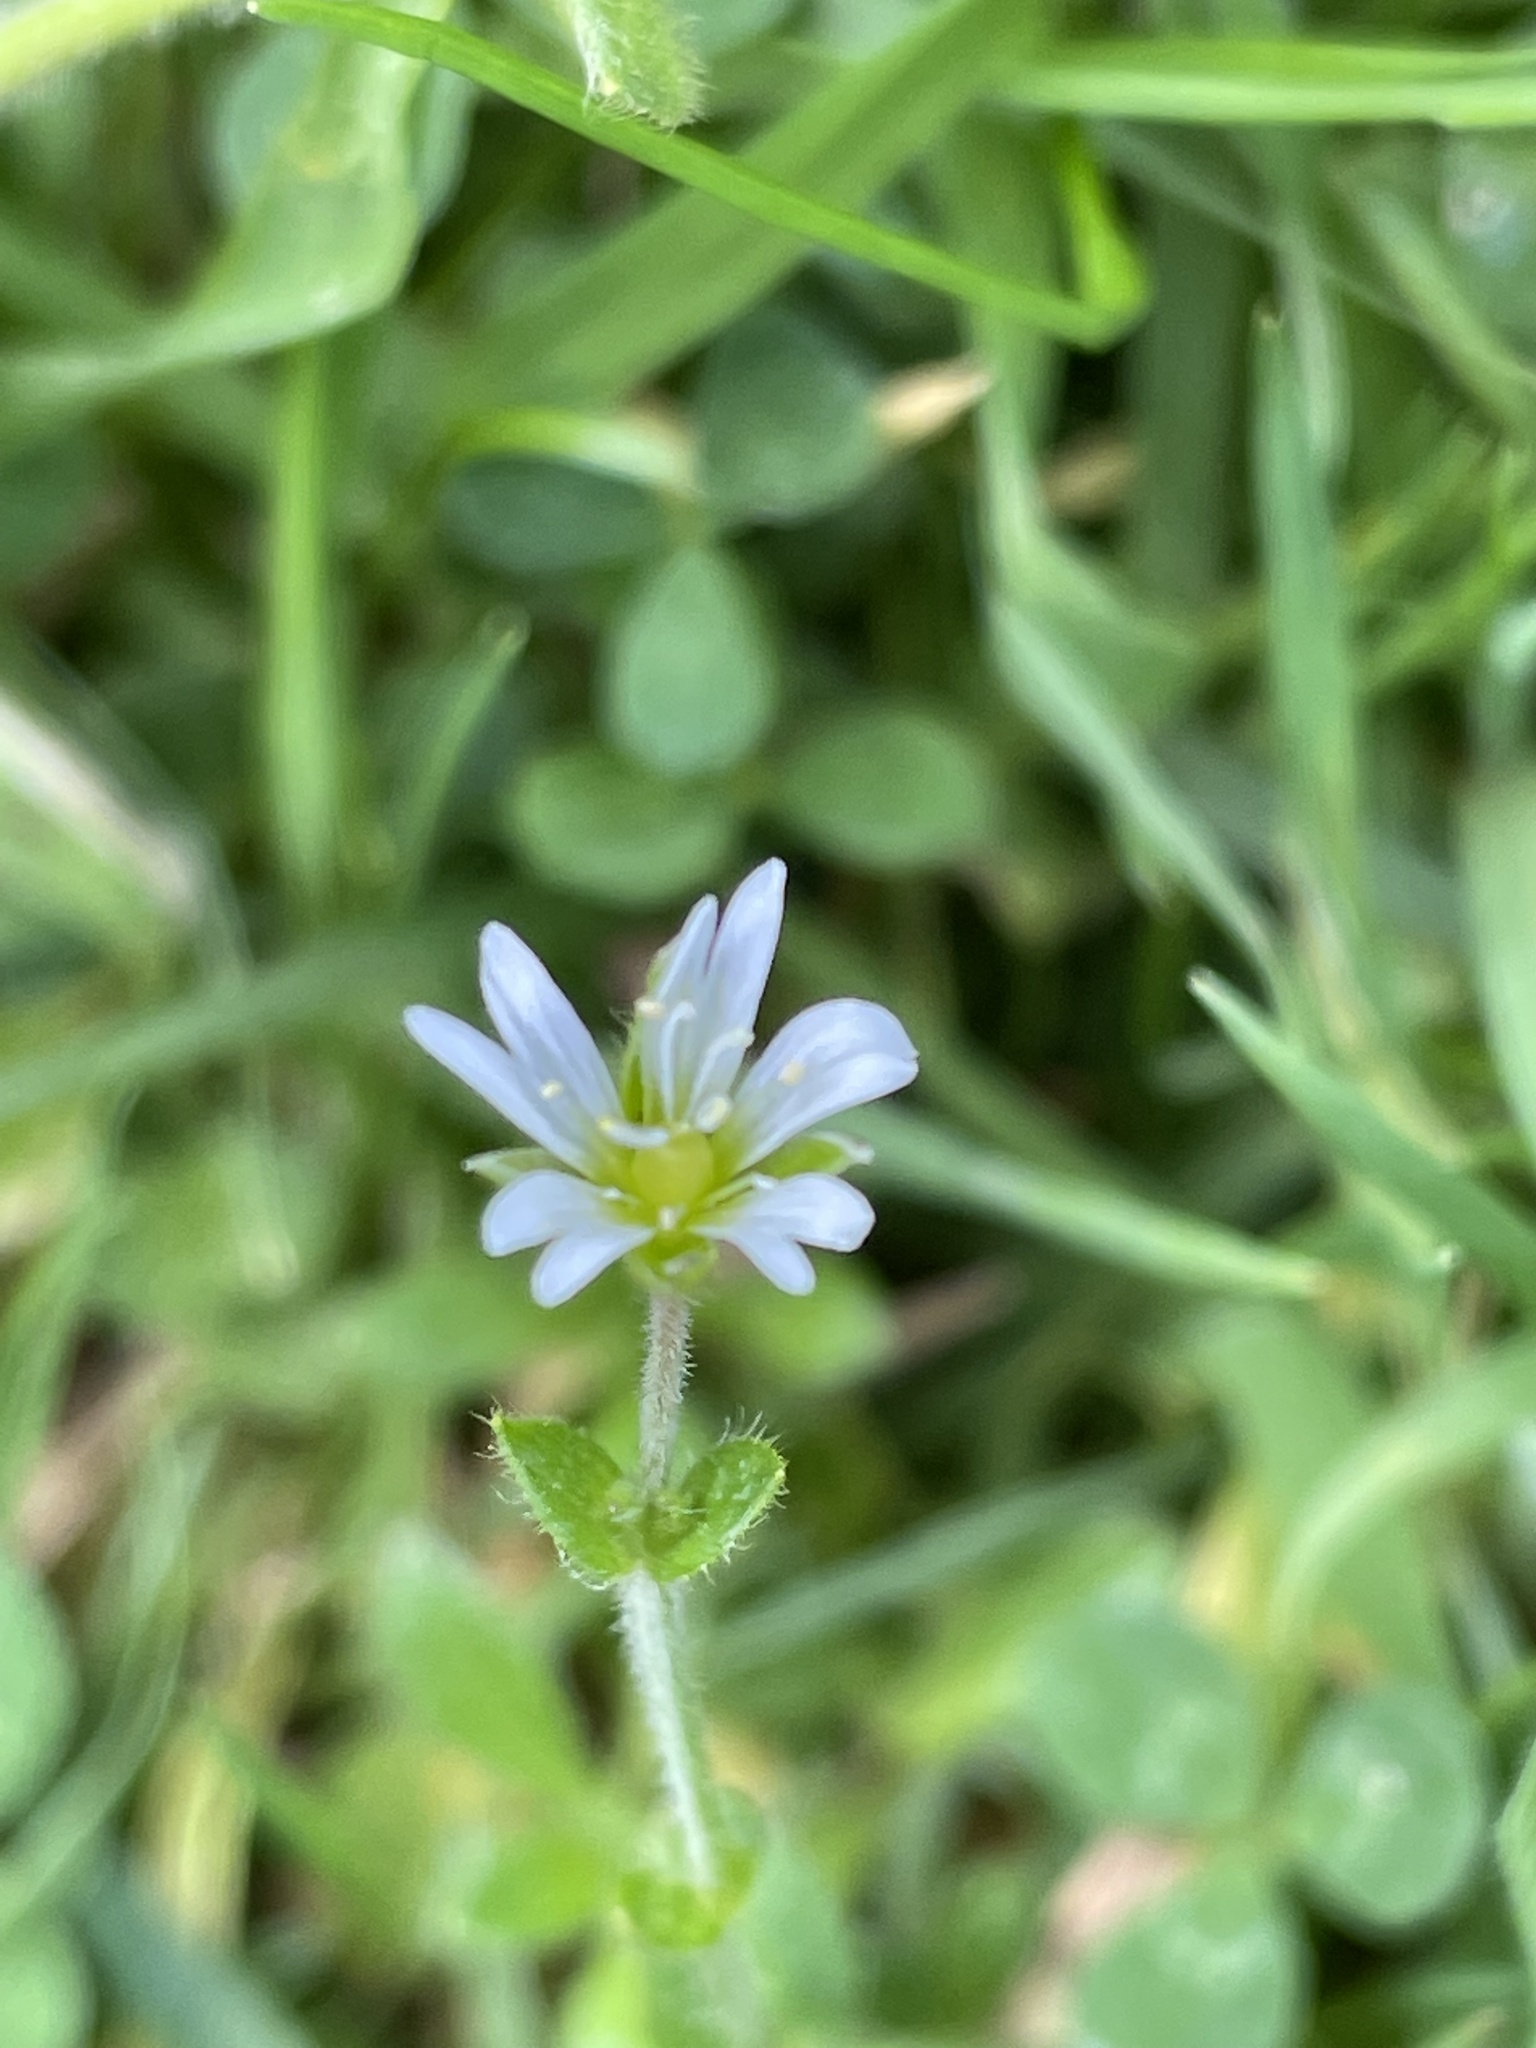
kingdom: Plantae
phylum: Tracheophyta
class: Magnoliopsida
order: Caryophyllales
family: Caryophyllaceae
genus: Cerastium
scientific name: Cerastium fontanum
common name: Common mouse-ear
